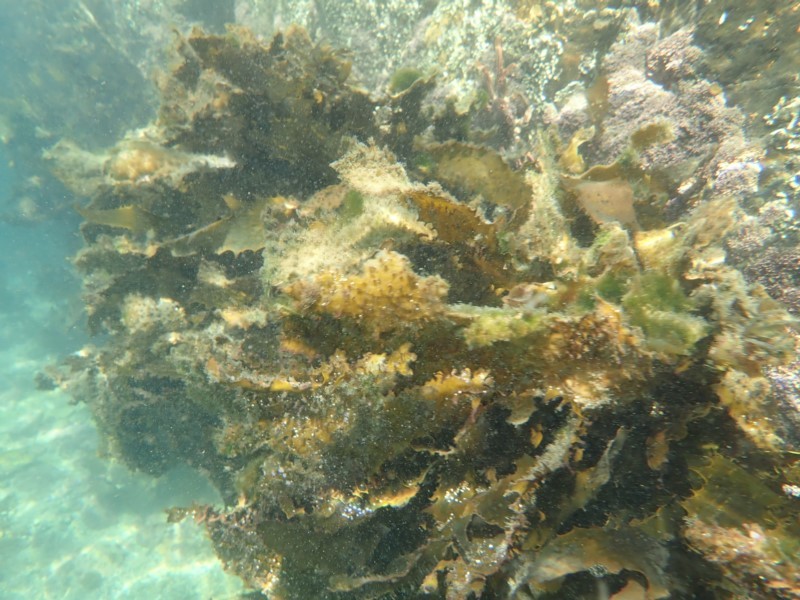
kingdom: Chromista
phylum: Ochrophyta
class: Phaeophyceae
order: Laminariales
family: Lessoniaceae
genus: Ecklonia
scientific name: Ecklonia radiata
